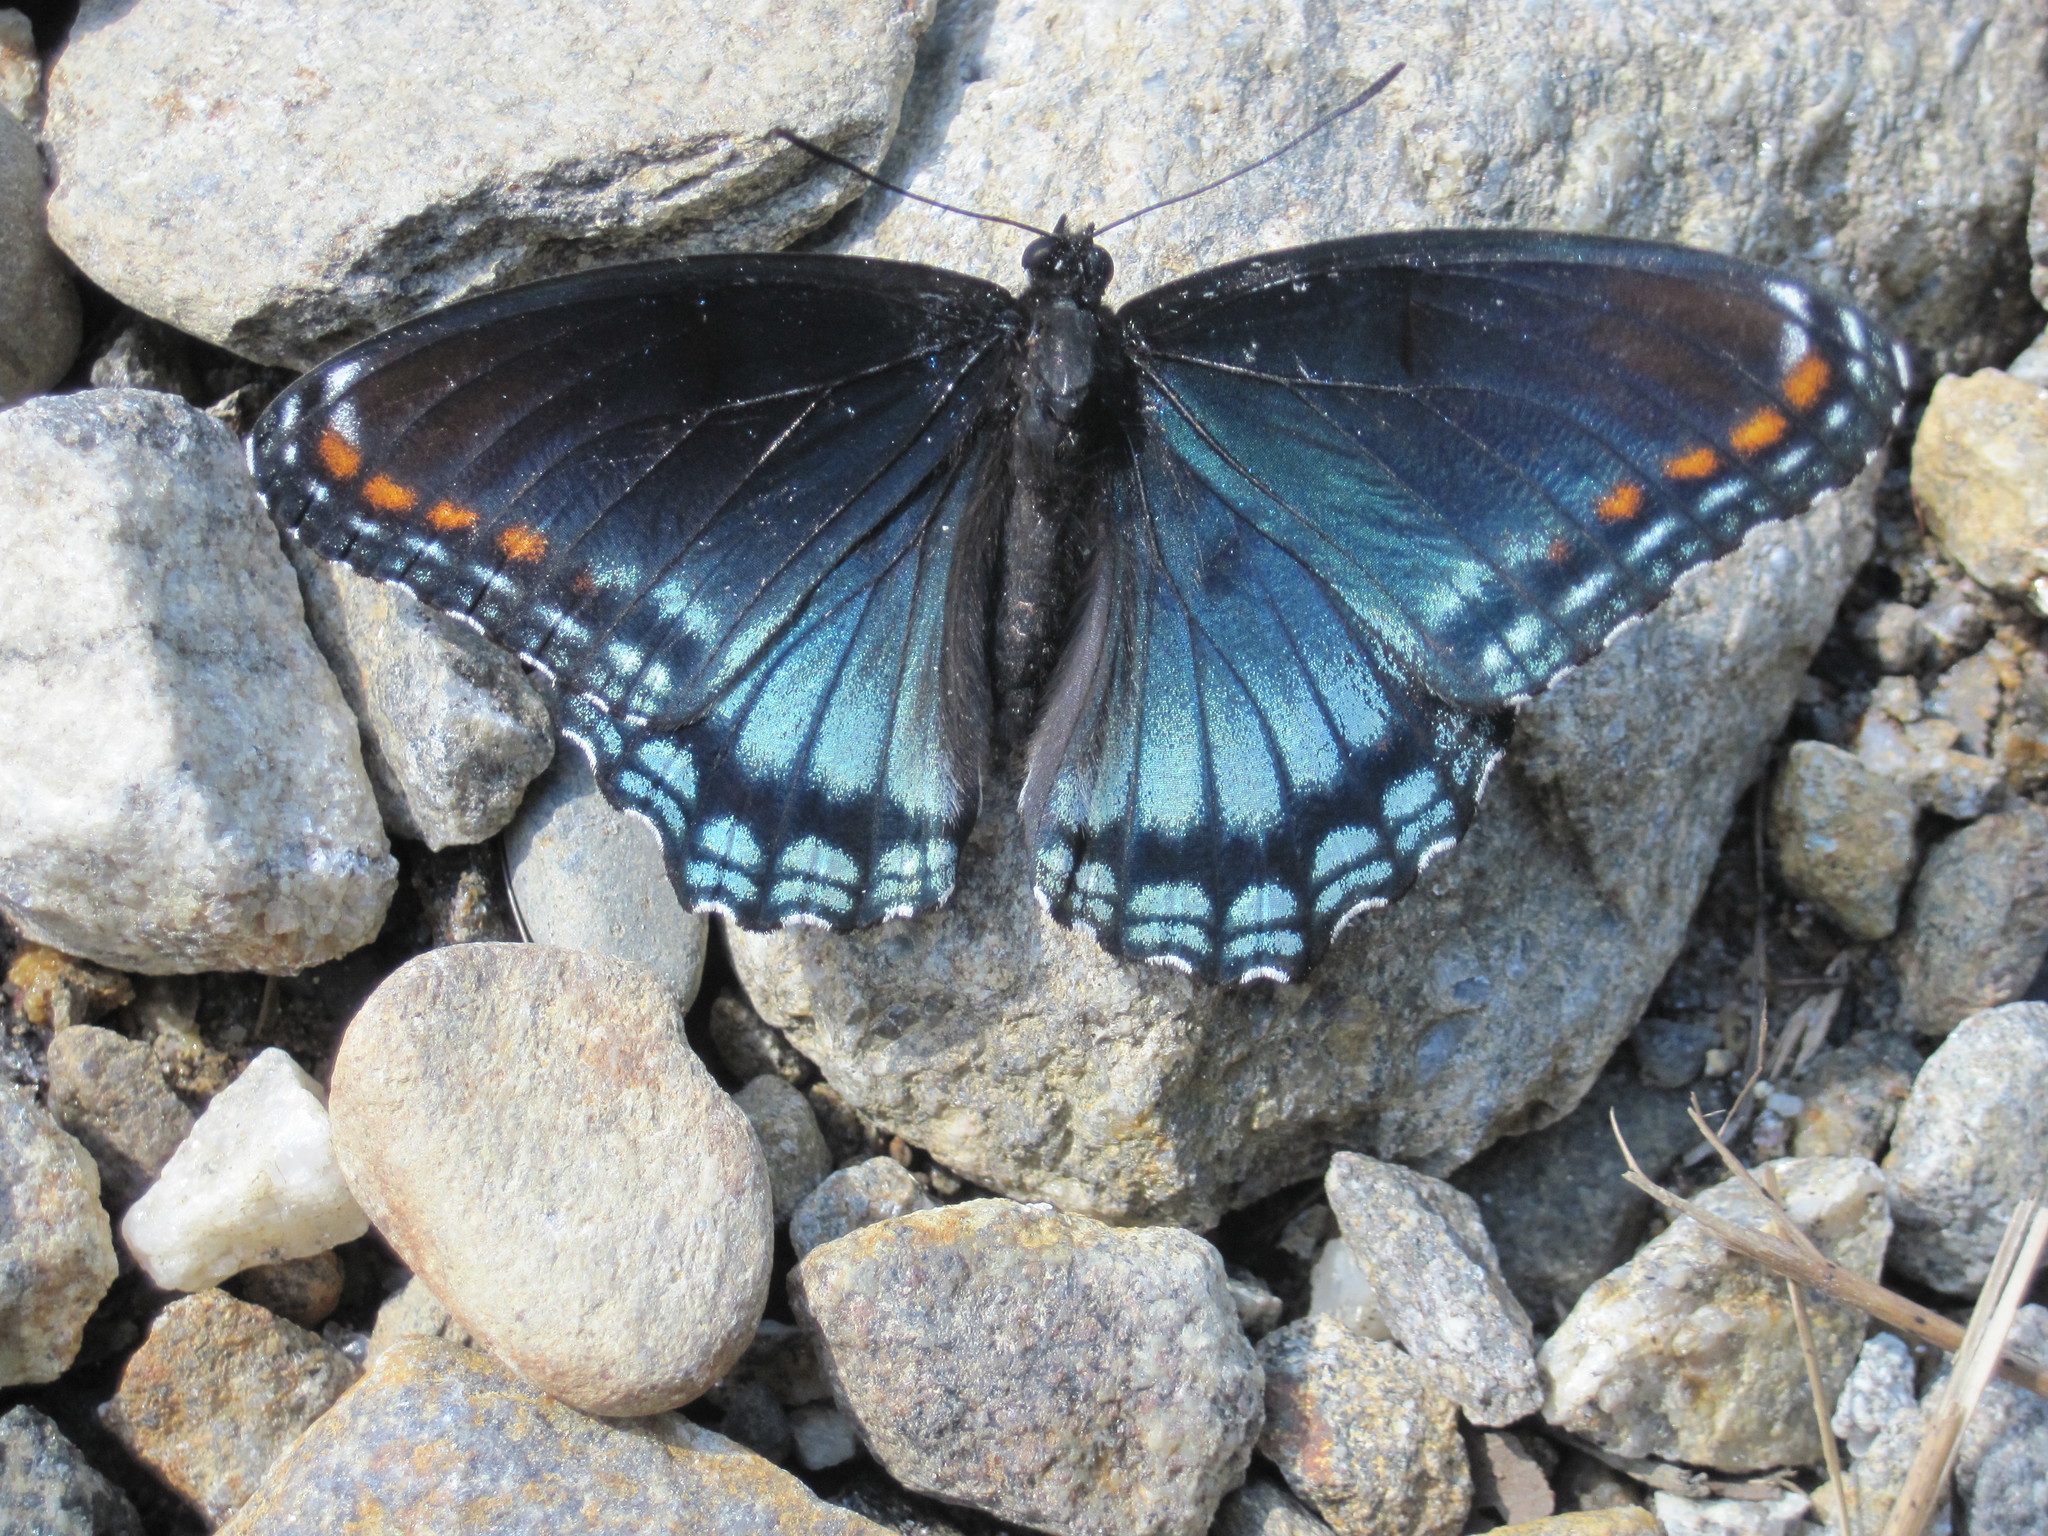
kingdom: Animalia
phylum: Arthropoda
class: Insecta
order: Lepidoptera
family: Nymphalidae
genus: Limenitis
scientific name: Limenitis astyanax
